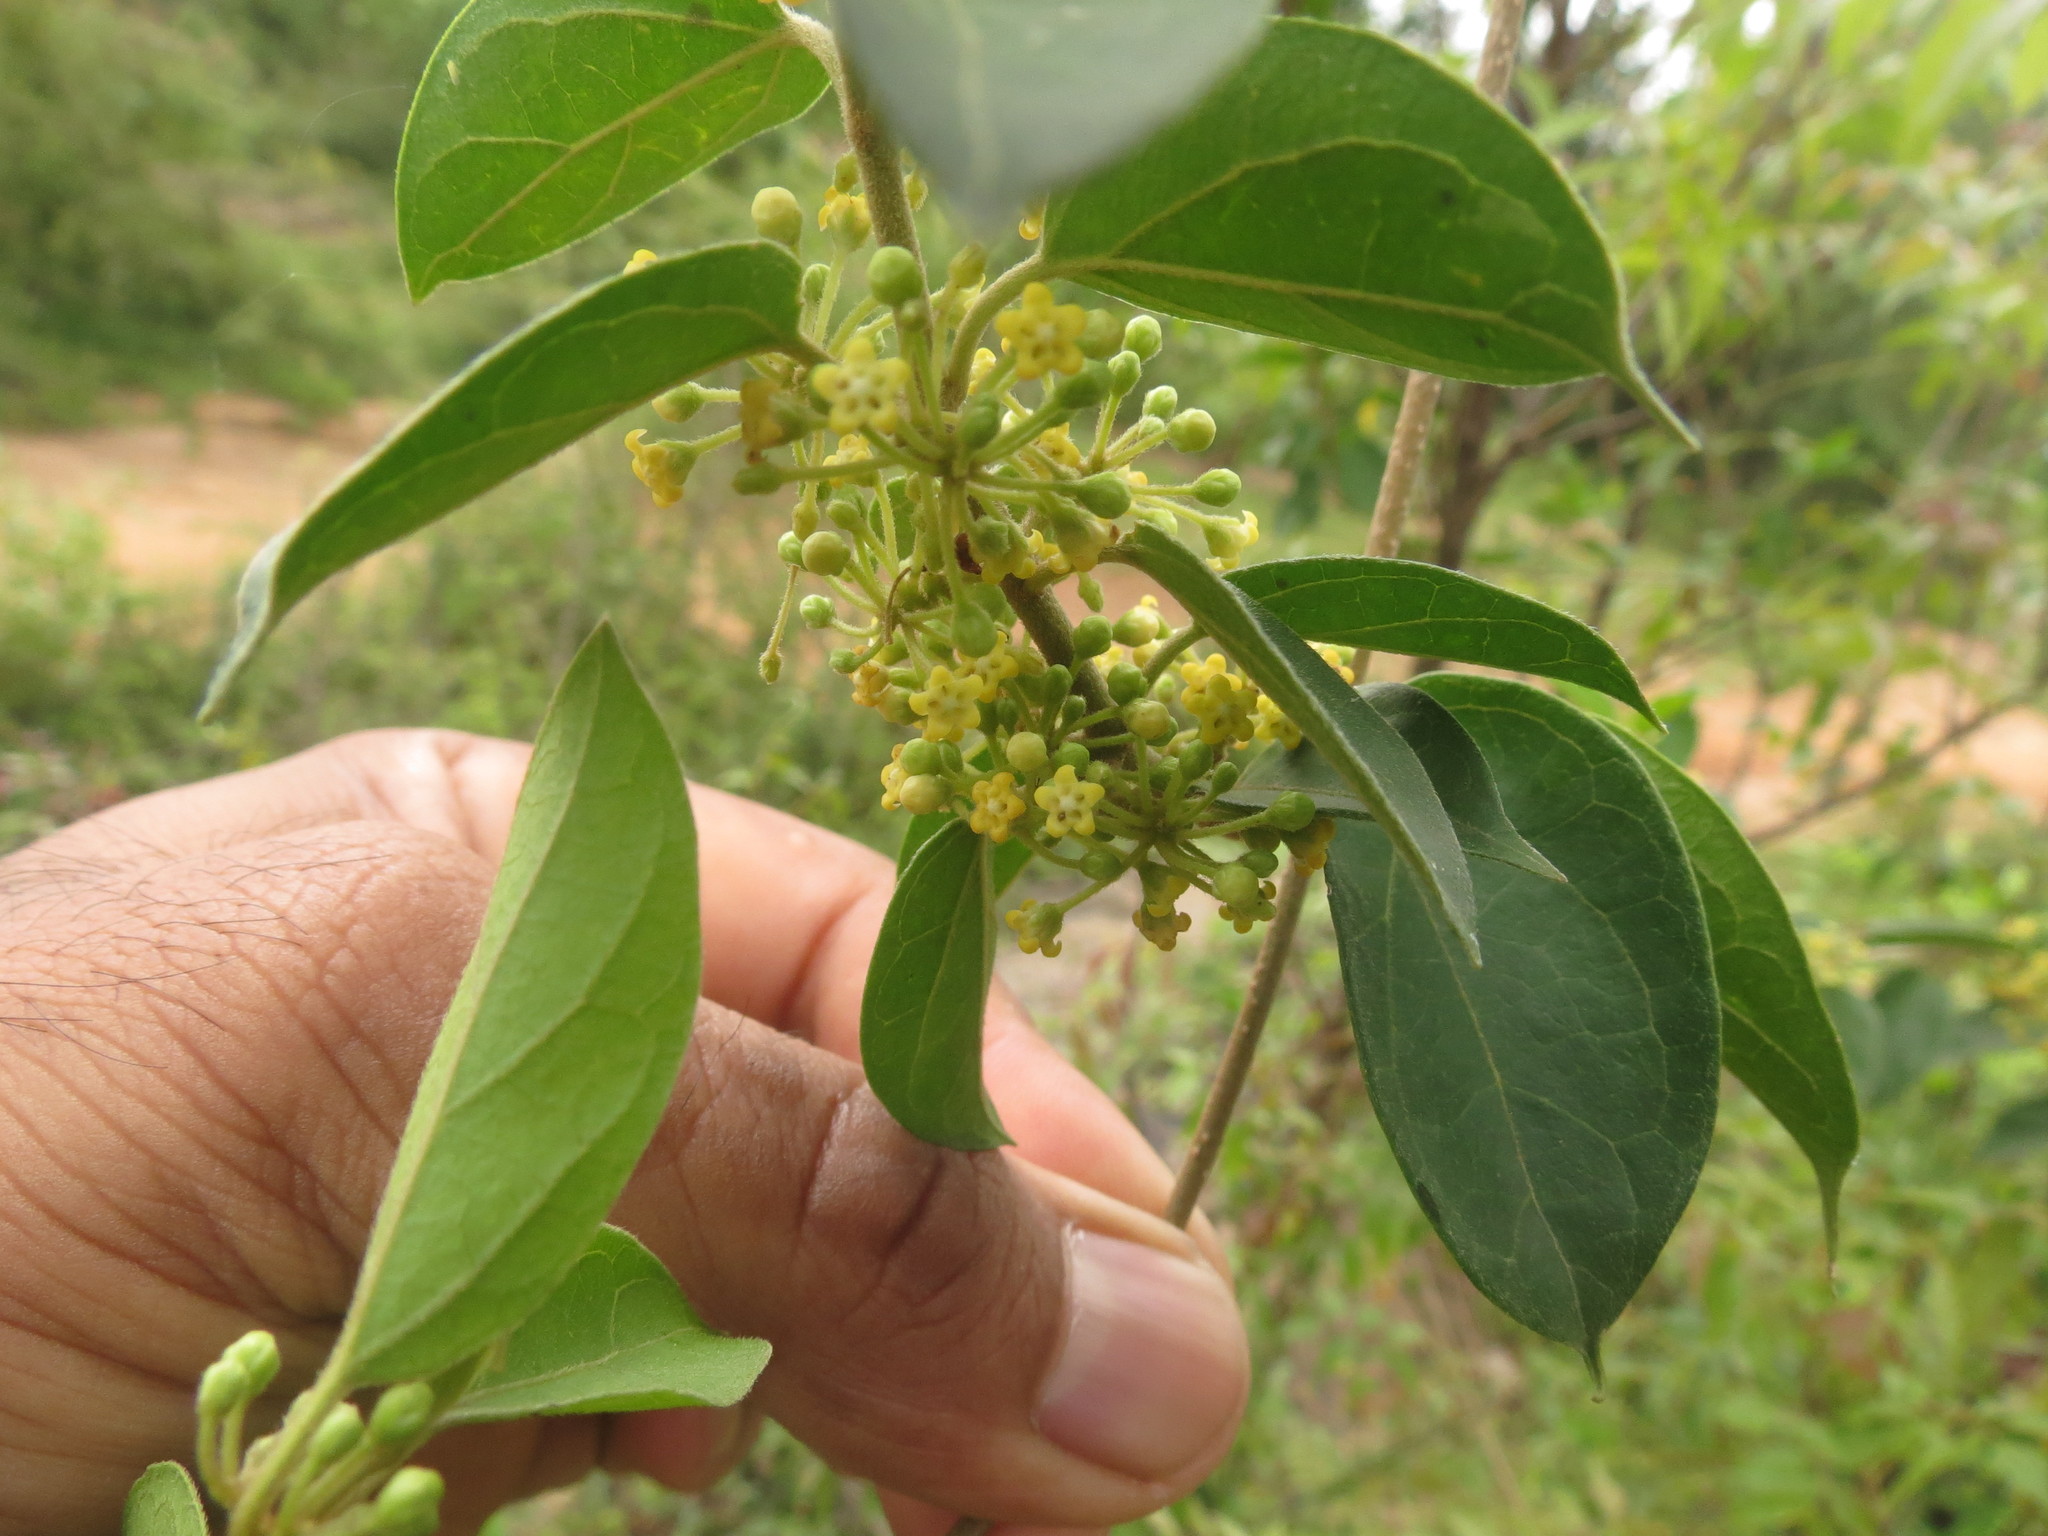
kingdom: Plantae
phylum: Tracheophyta
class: Magnoliopsida
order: Gentianales
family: Apocynaceae
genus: Gymnema
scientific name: Gymnema sylvestre
